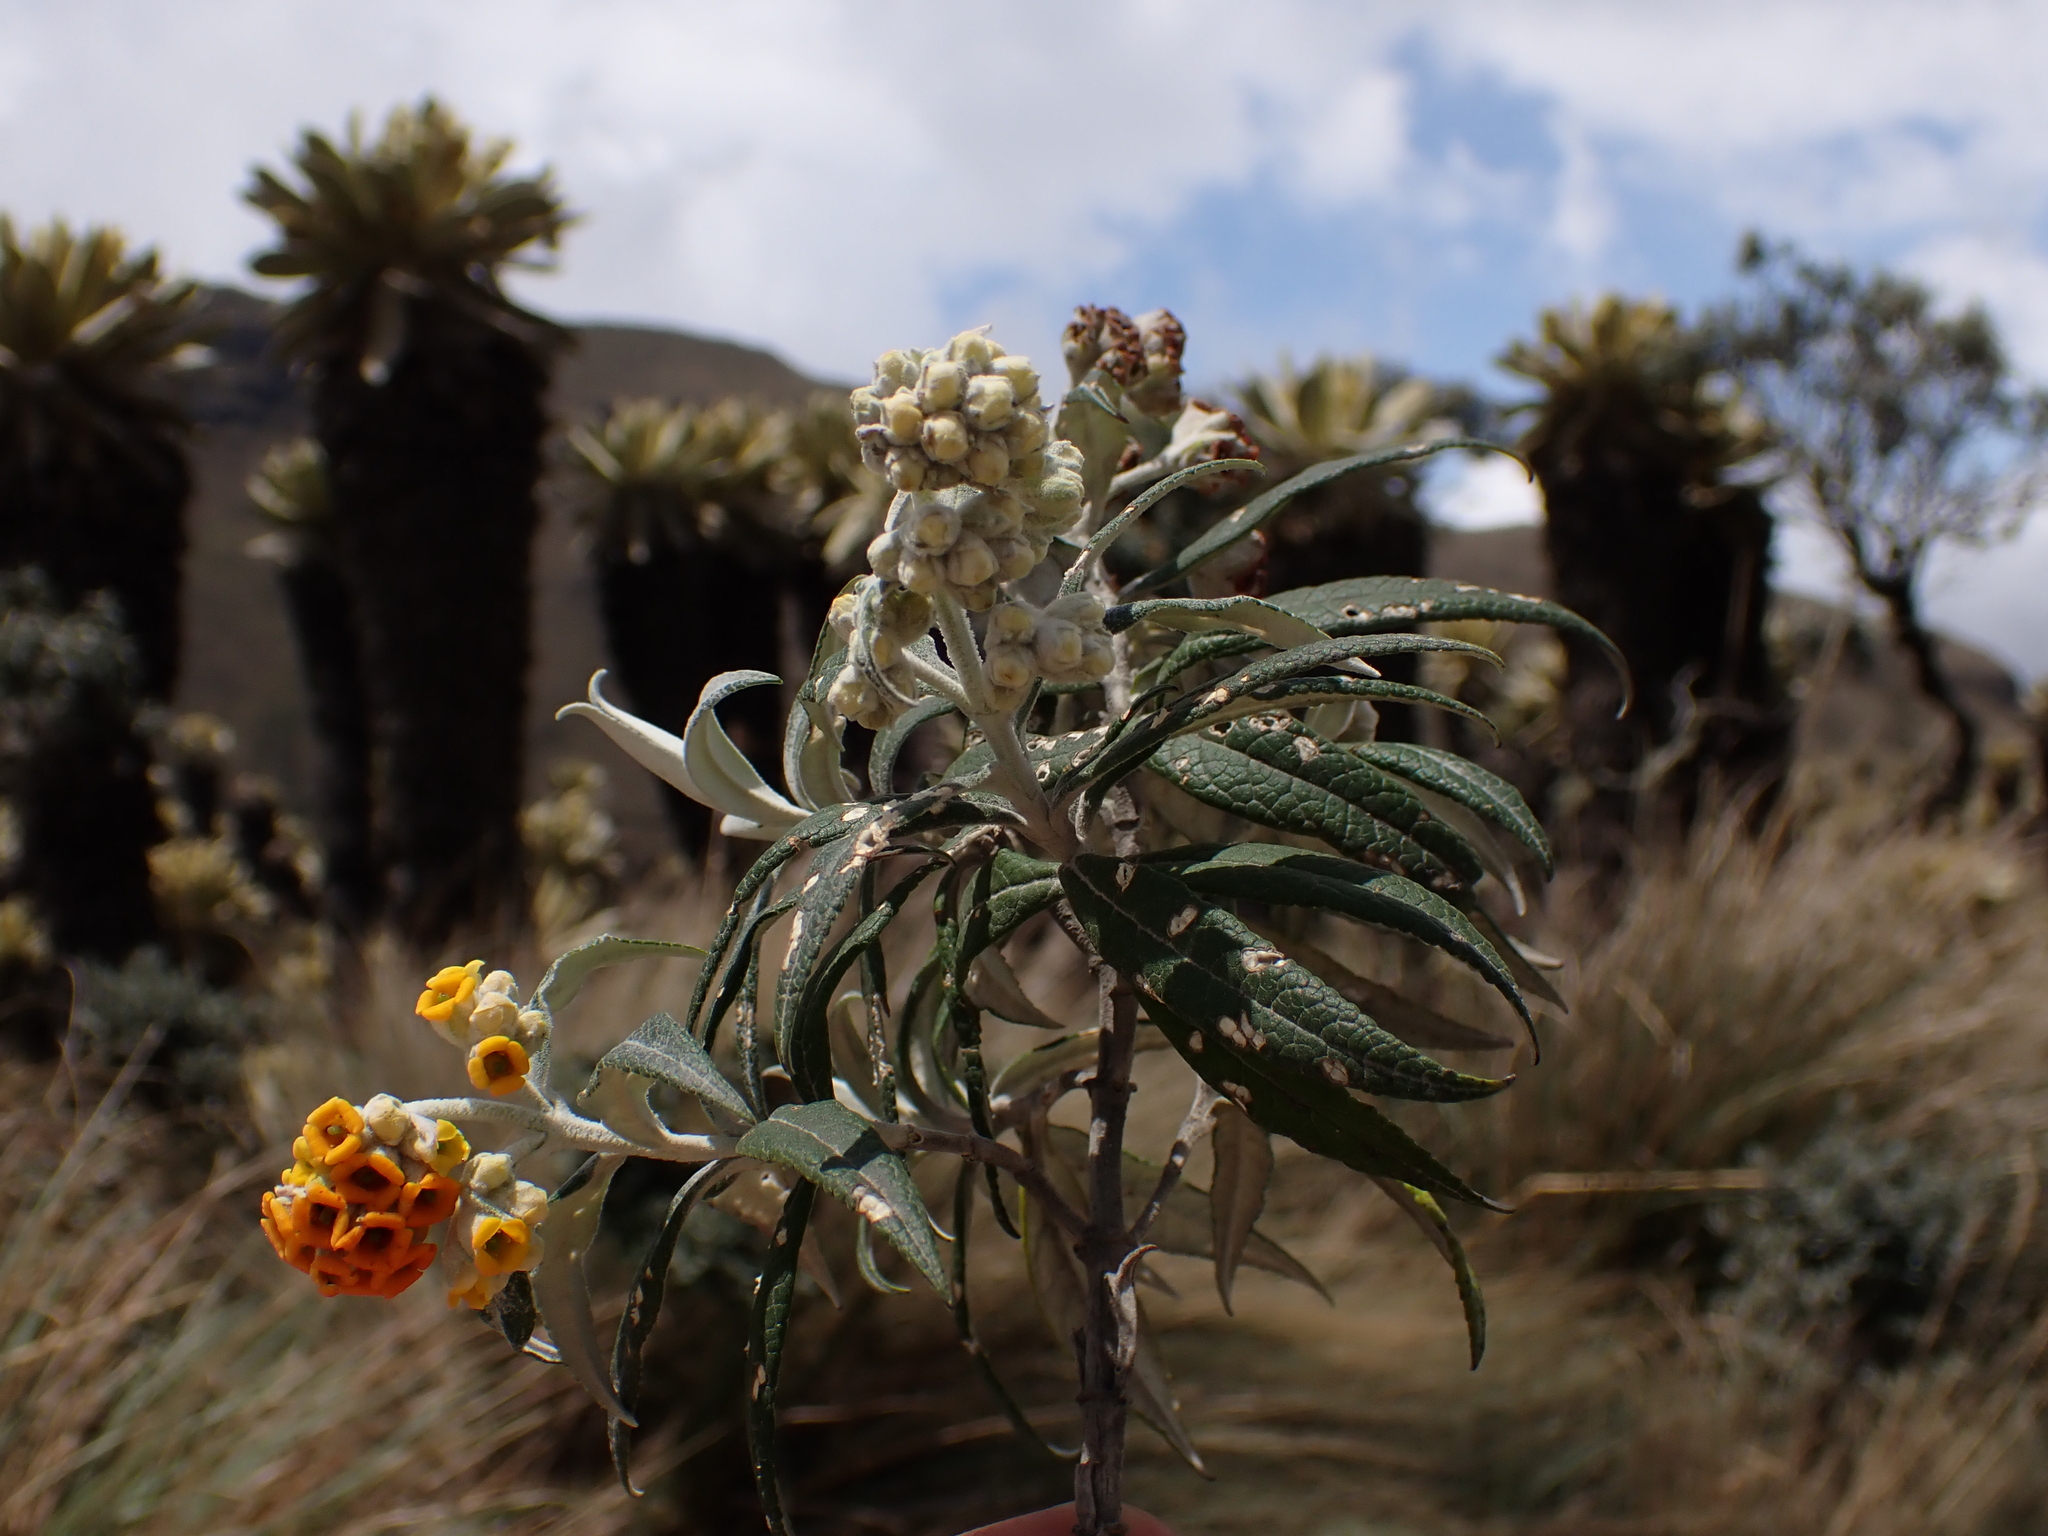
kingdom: Plantae
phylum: Tracheophyta
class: Magnoliopsida
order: Lamiales
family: Scrophulariaceae
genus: Buddleja
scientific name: Buddleja incana
